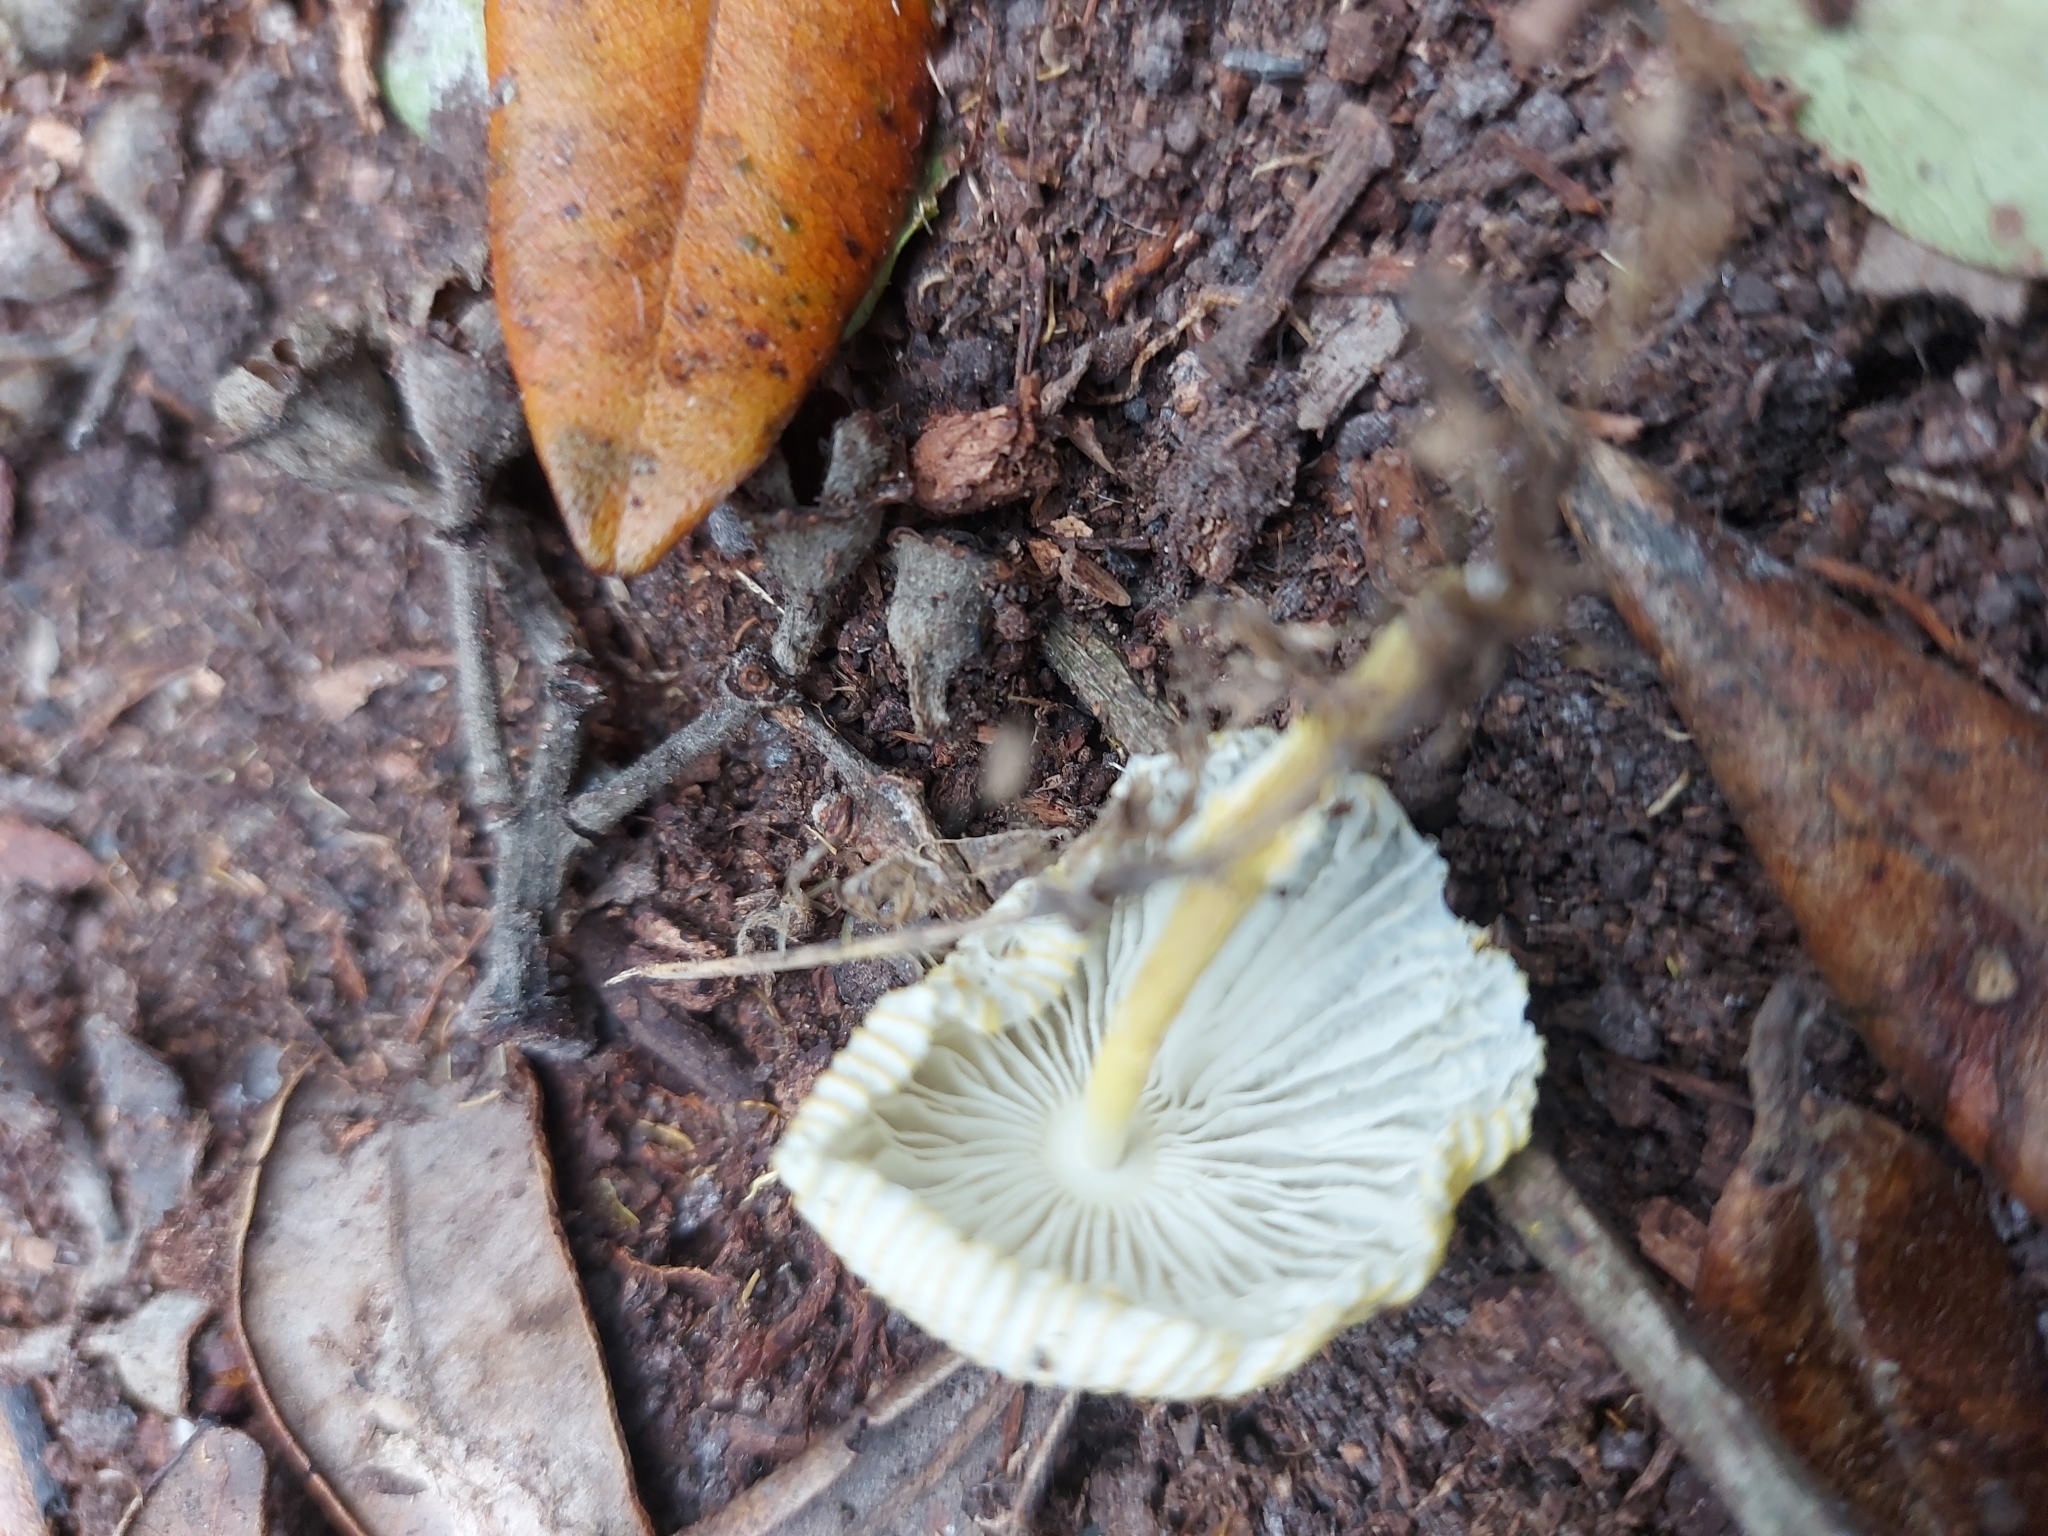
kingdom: Fungi
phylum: Basidiomycota
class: Agaricomycetes
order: Agaricales
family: Agaricaceae
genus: Leucocoprinus
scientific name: Leucocoprinus fragilissimus
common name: Fragile dapperling
